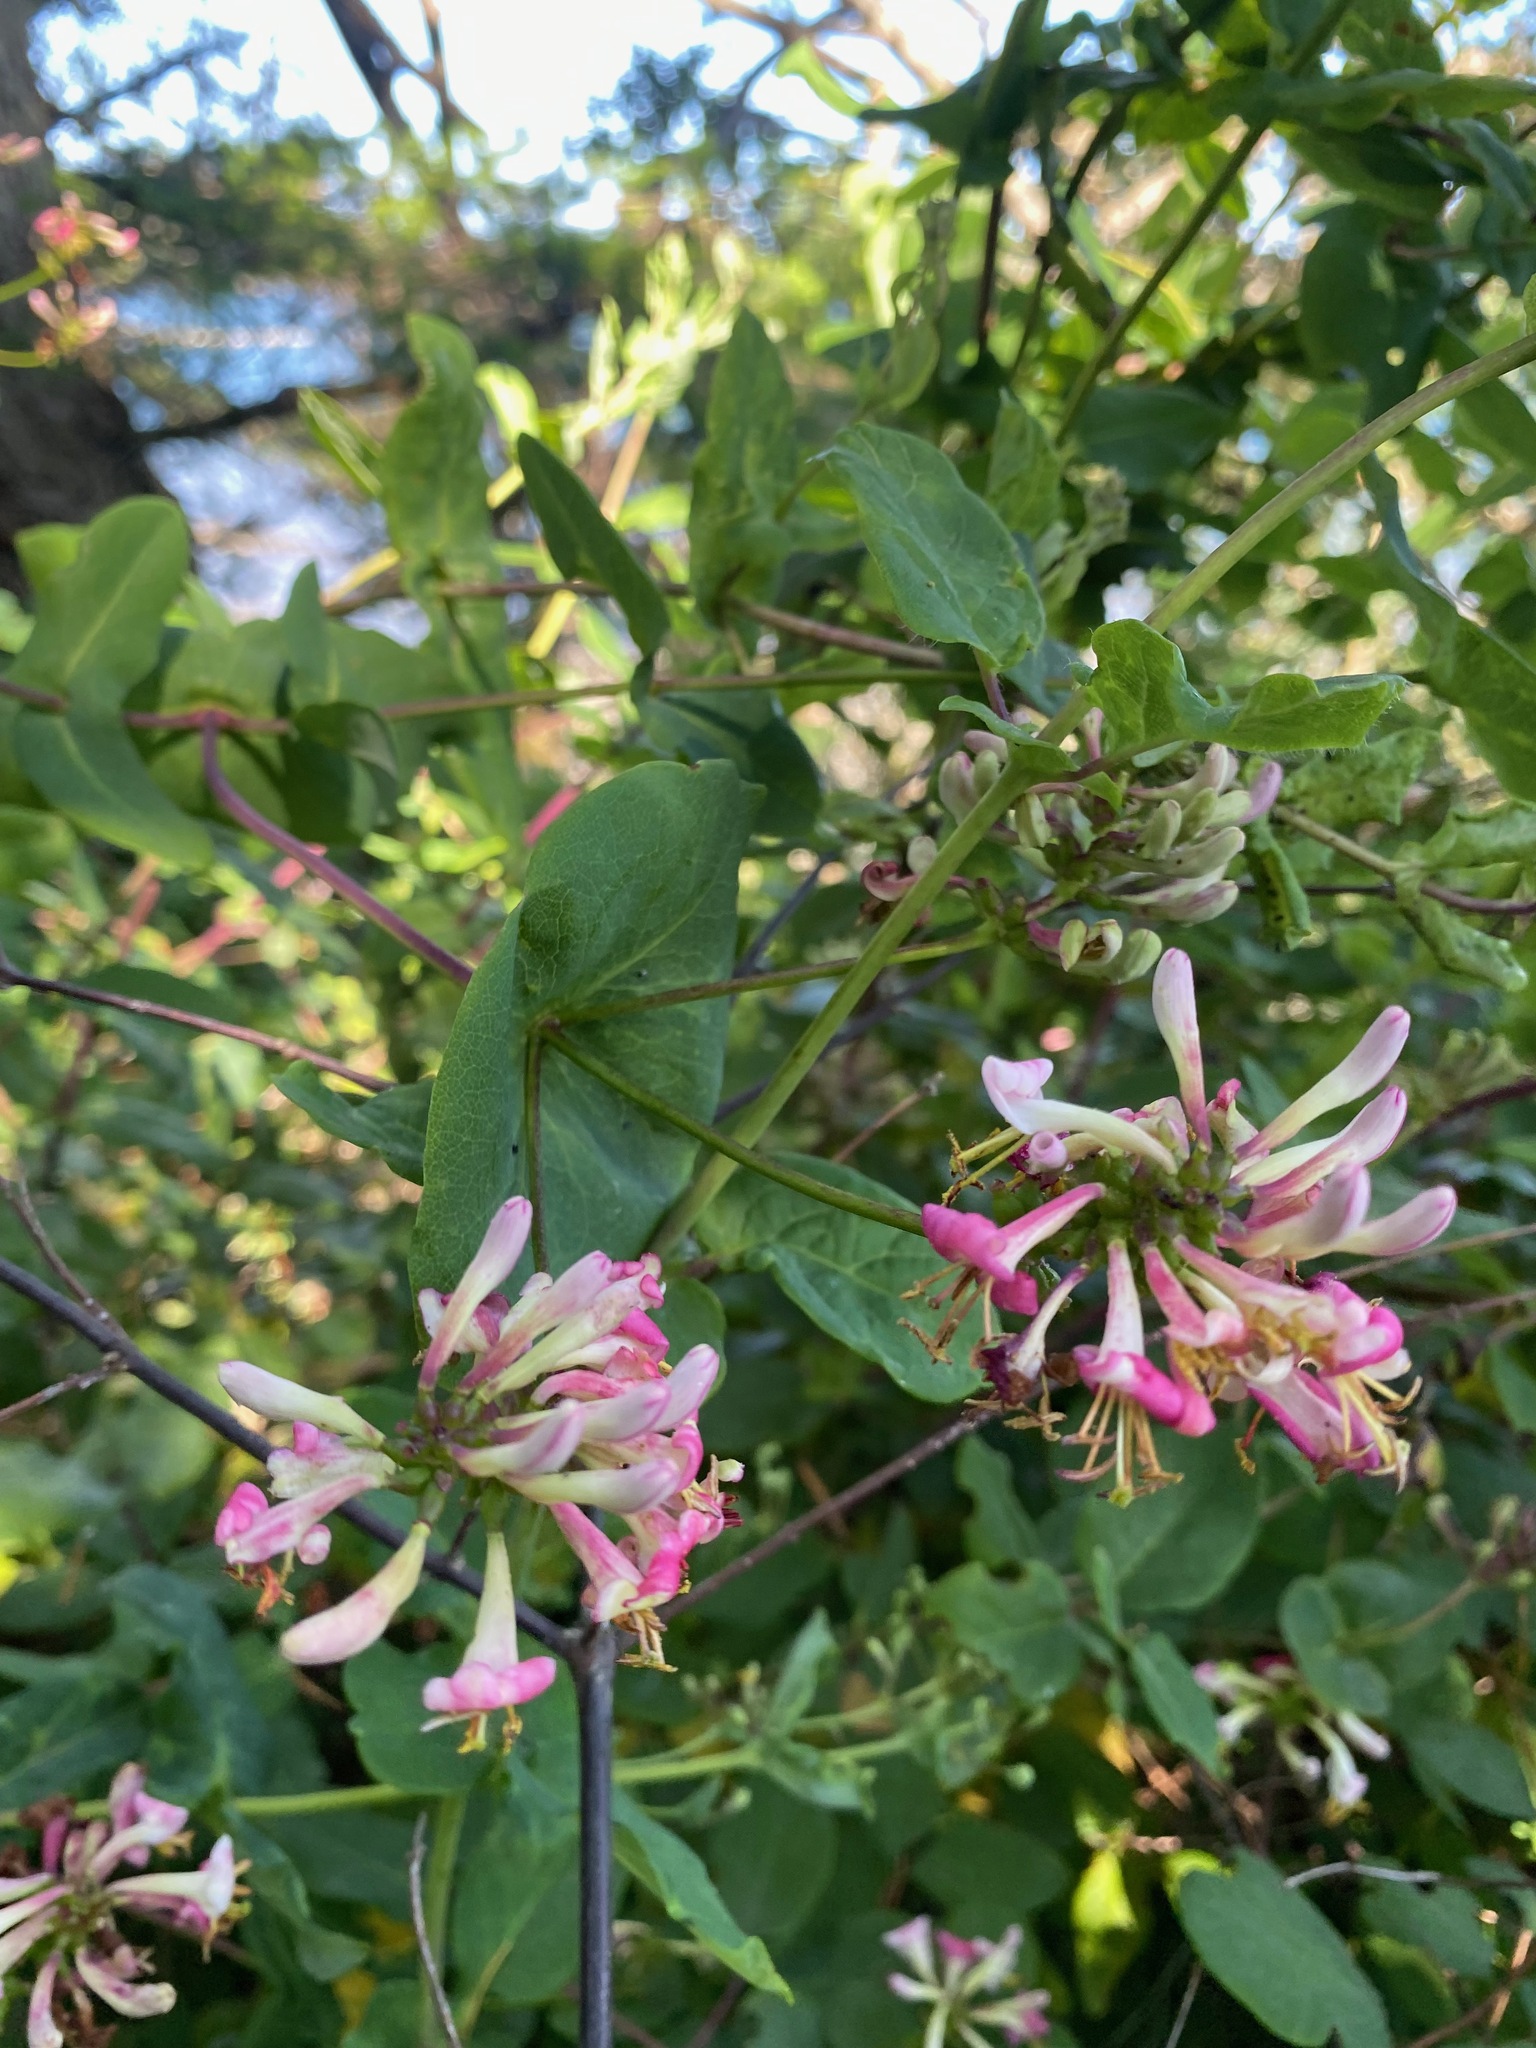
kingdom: Plantae
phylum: Tracheophyta
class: Magnoliopsida
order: Dipsacales
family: Caprifoliaceae
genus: Lonicera
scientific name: Lonicera hispidula
